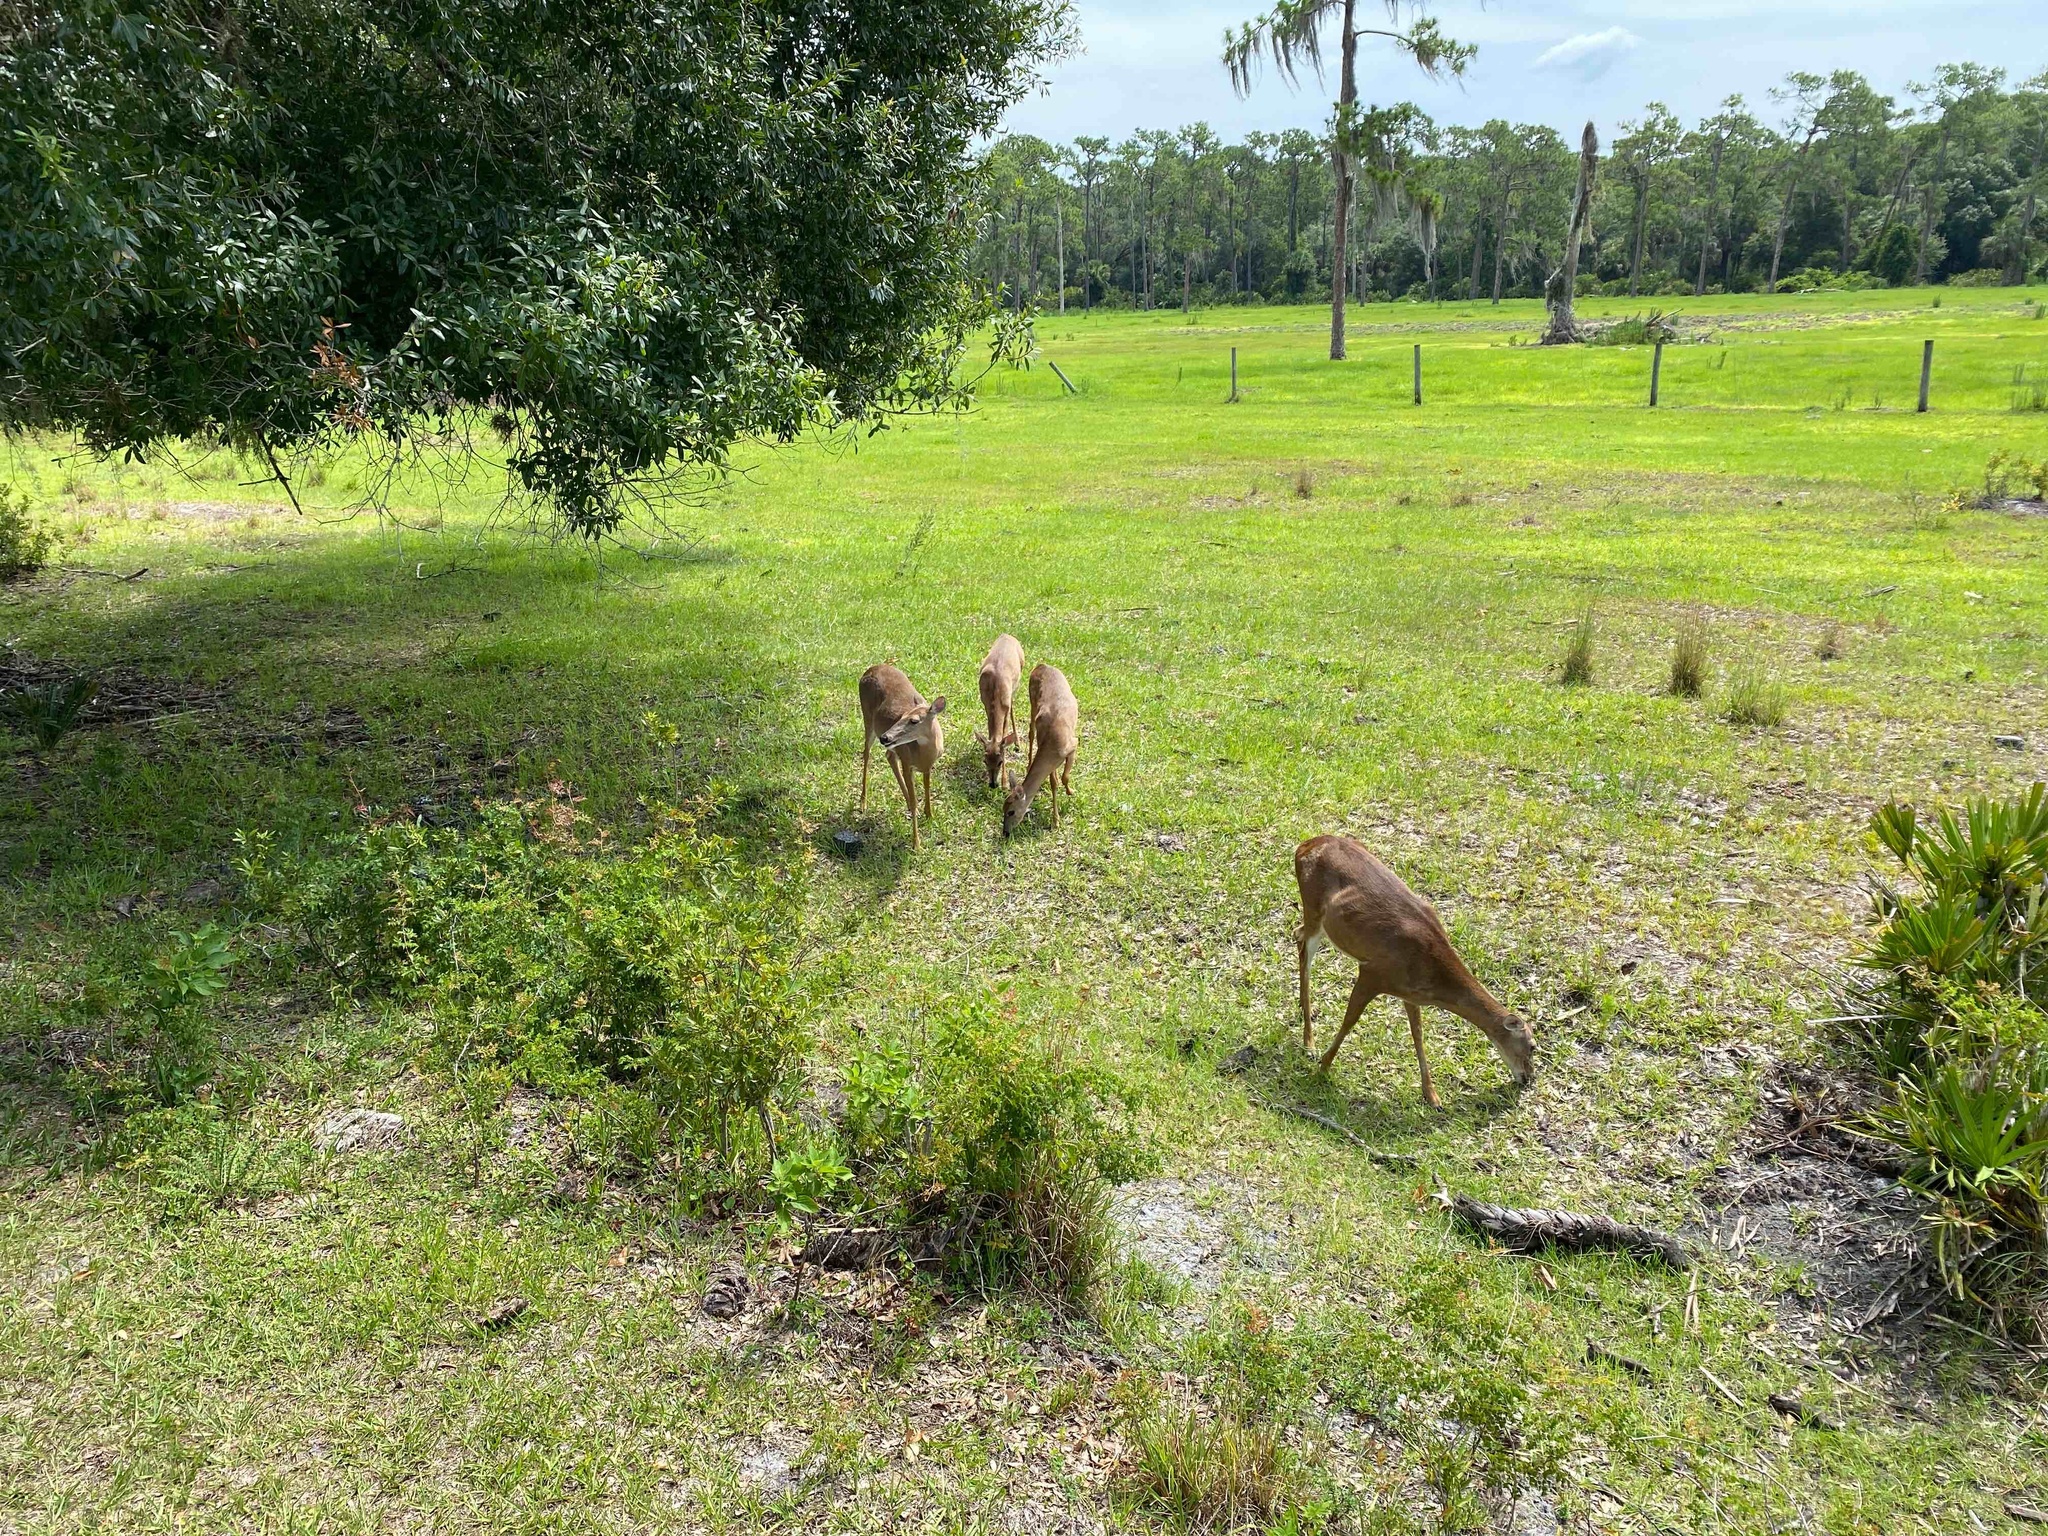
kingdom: Animalia
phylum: Chordata
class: Mammalia
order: Artiodactyla
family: Cervidae
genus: Odocoileus
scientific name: Odocoileus virginianus
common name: White-tailed deer
